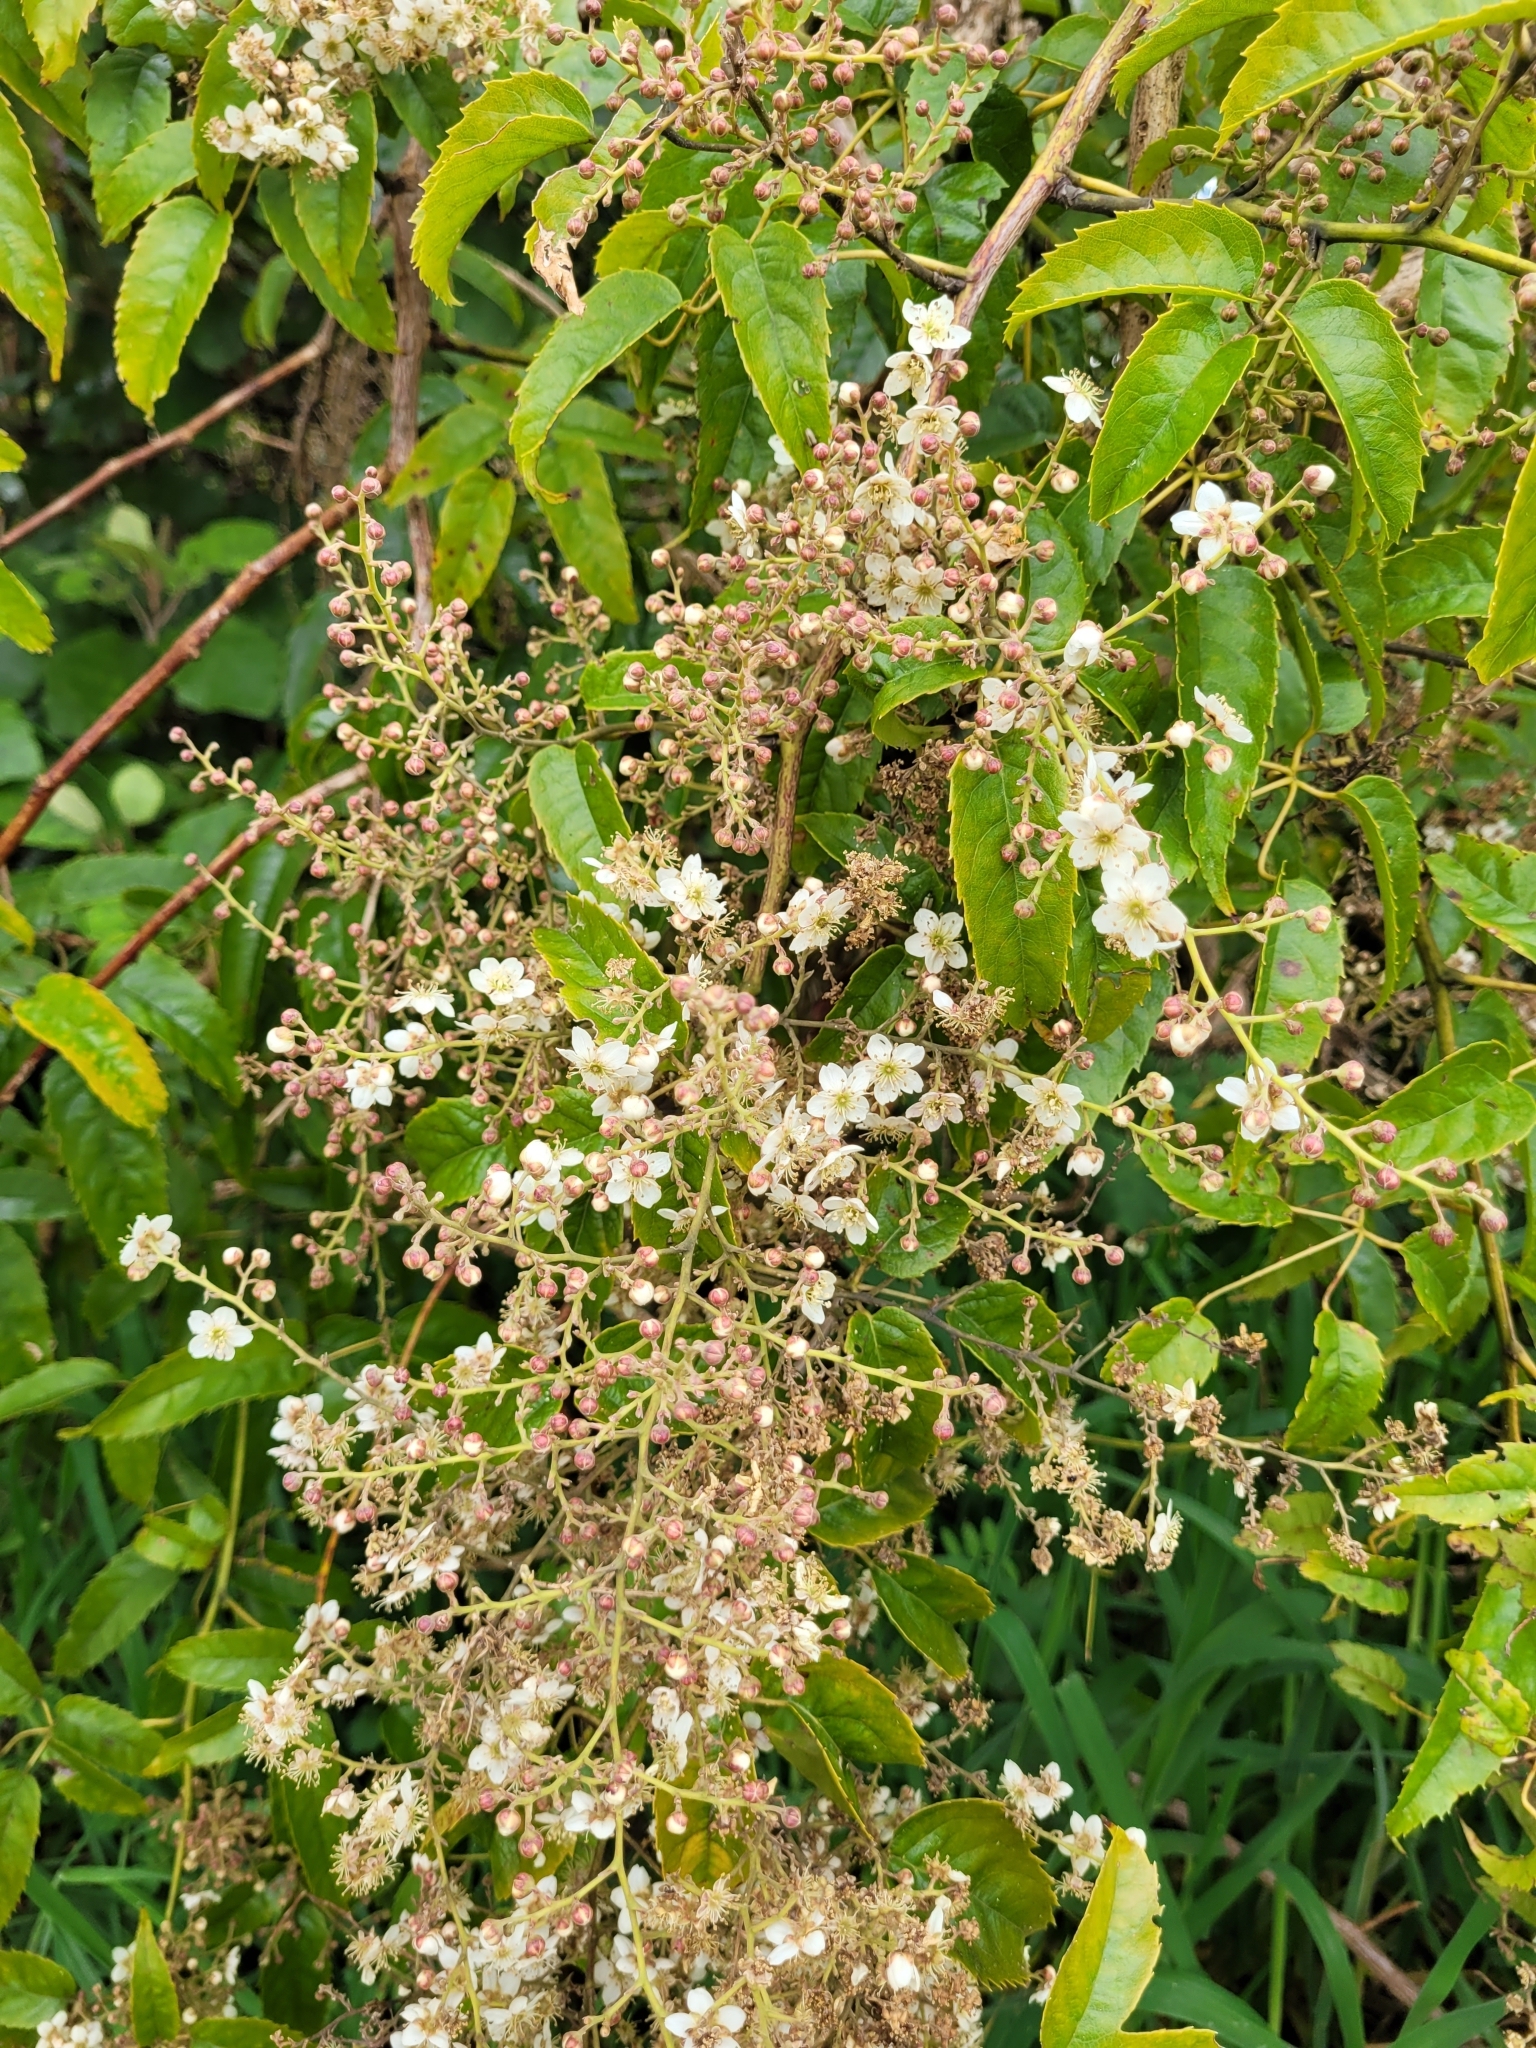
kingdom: Plantae
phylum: Tracheophyta
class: Magnoliopsida
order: Rosales
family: Rosaceae
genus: Rubus
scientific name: Rubus cissoides
